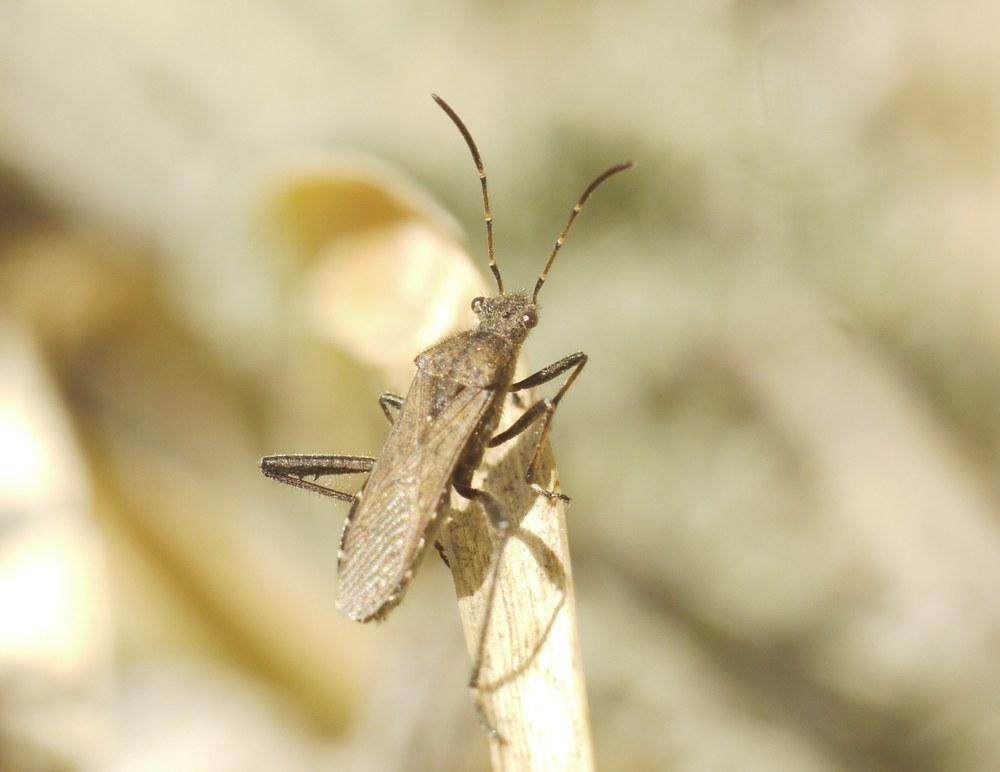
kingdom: Animalia
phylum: Arthropoda
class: Insecta
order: Hemiptera
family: Alydidae
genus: Alydus
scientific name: Alydus calcaratus
